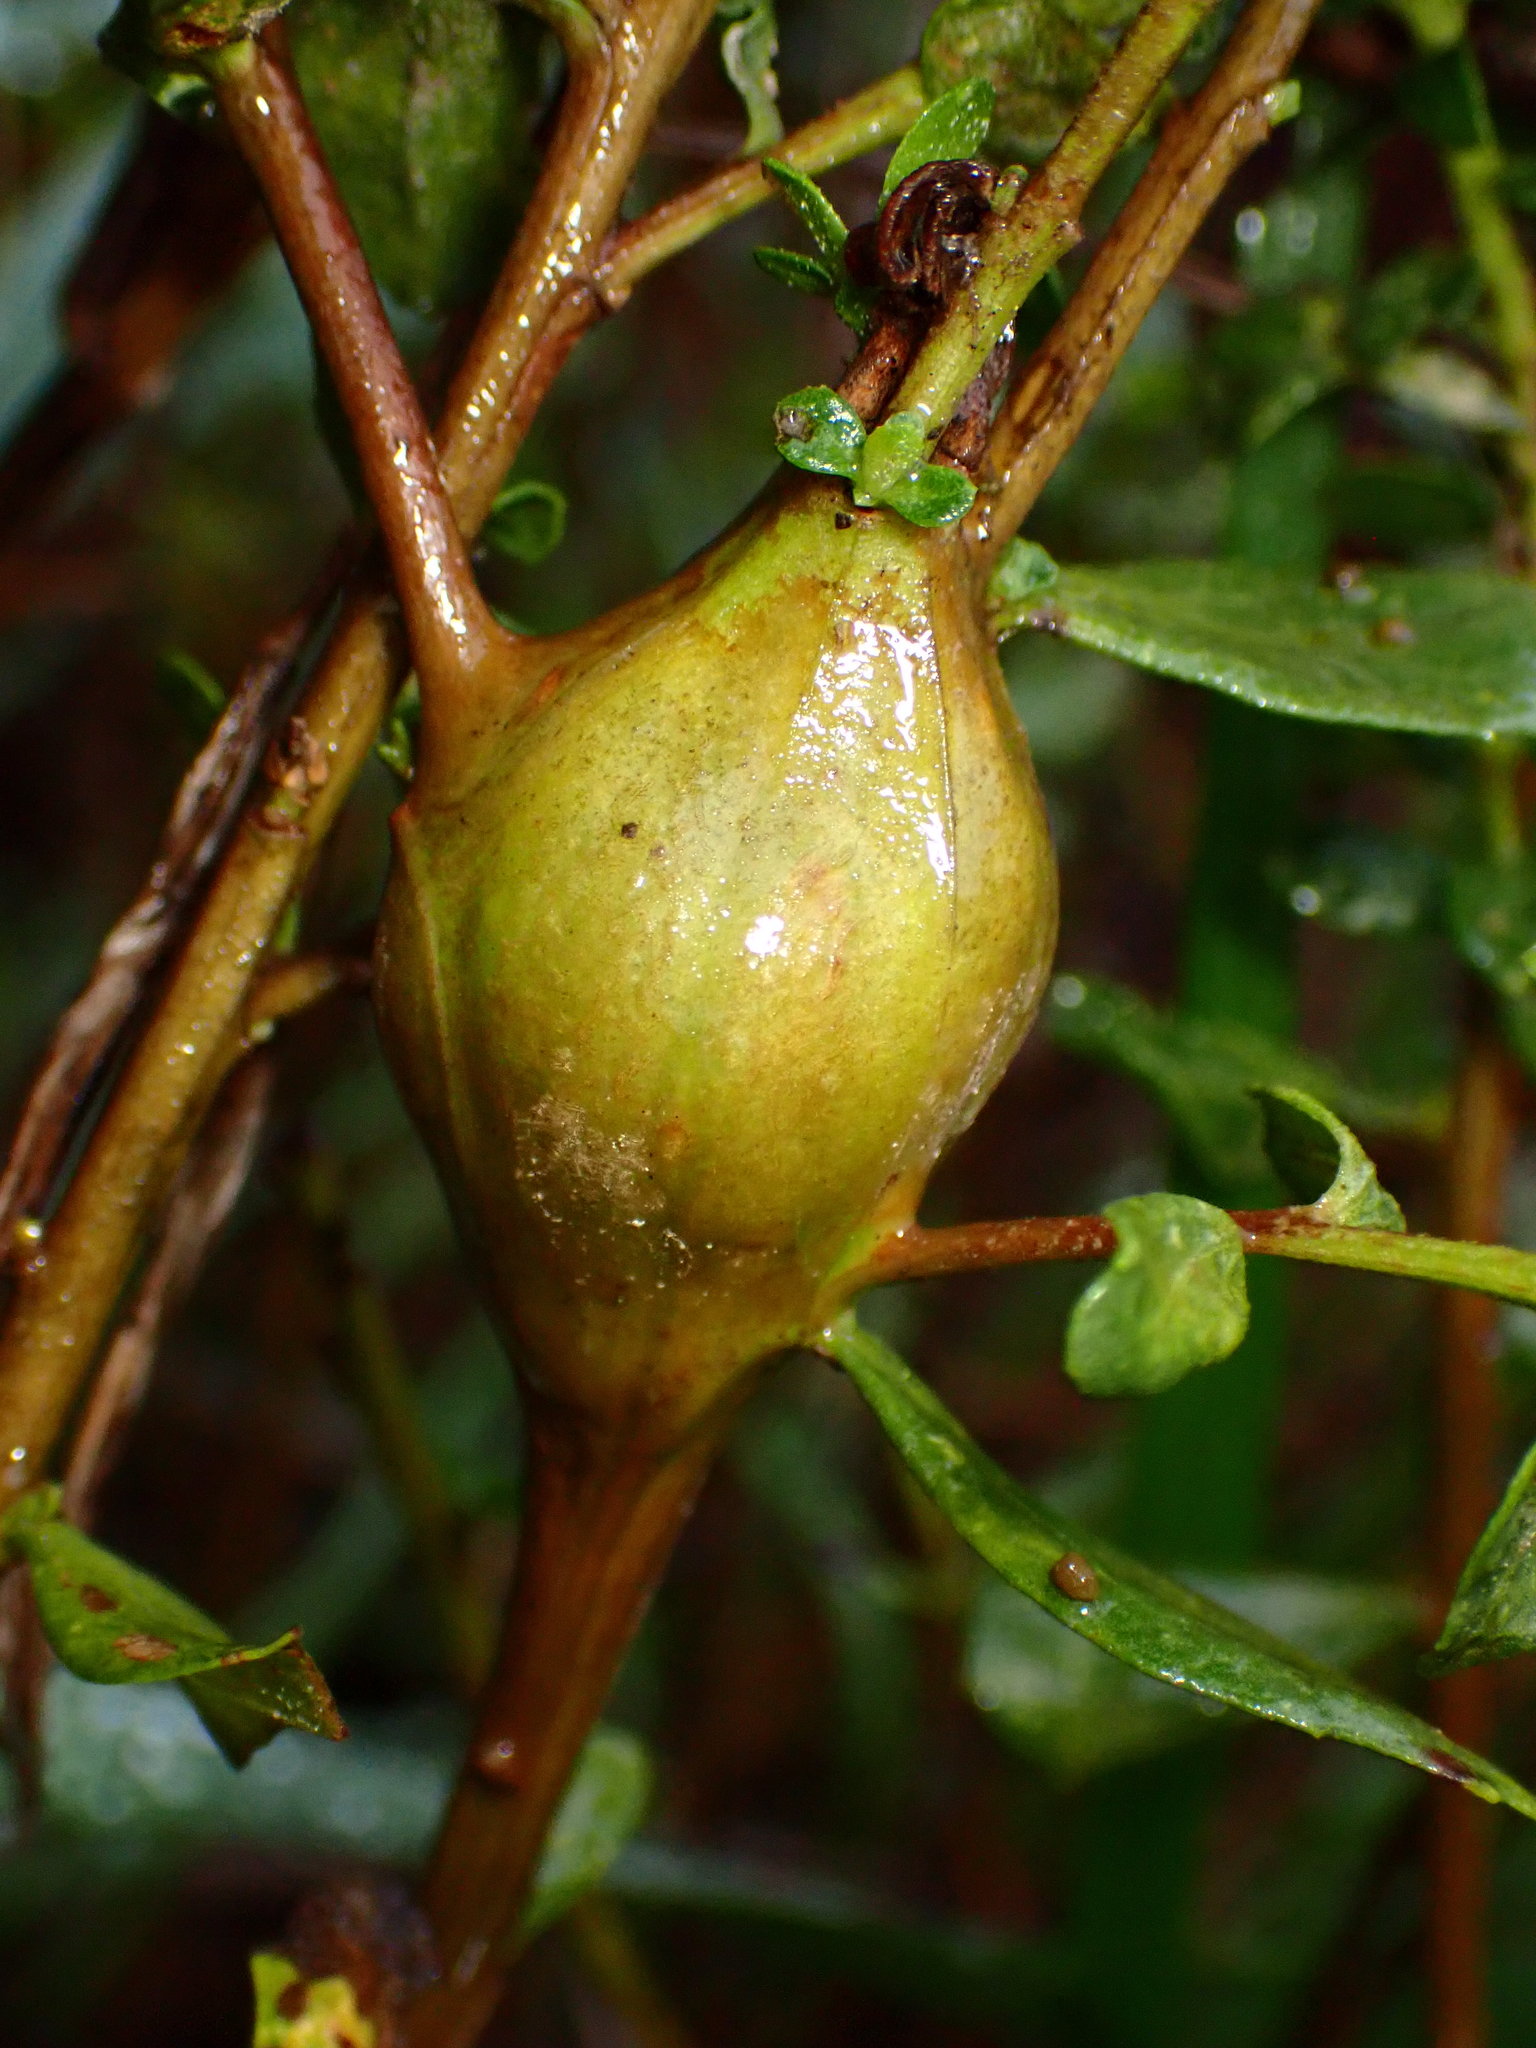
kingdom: Animalia
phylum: Arthropoda
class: Insecta
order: Lepidoptera
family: Gelechiidae
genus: Gnorimoschema
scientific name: Gnorimoschema baccharisella
